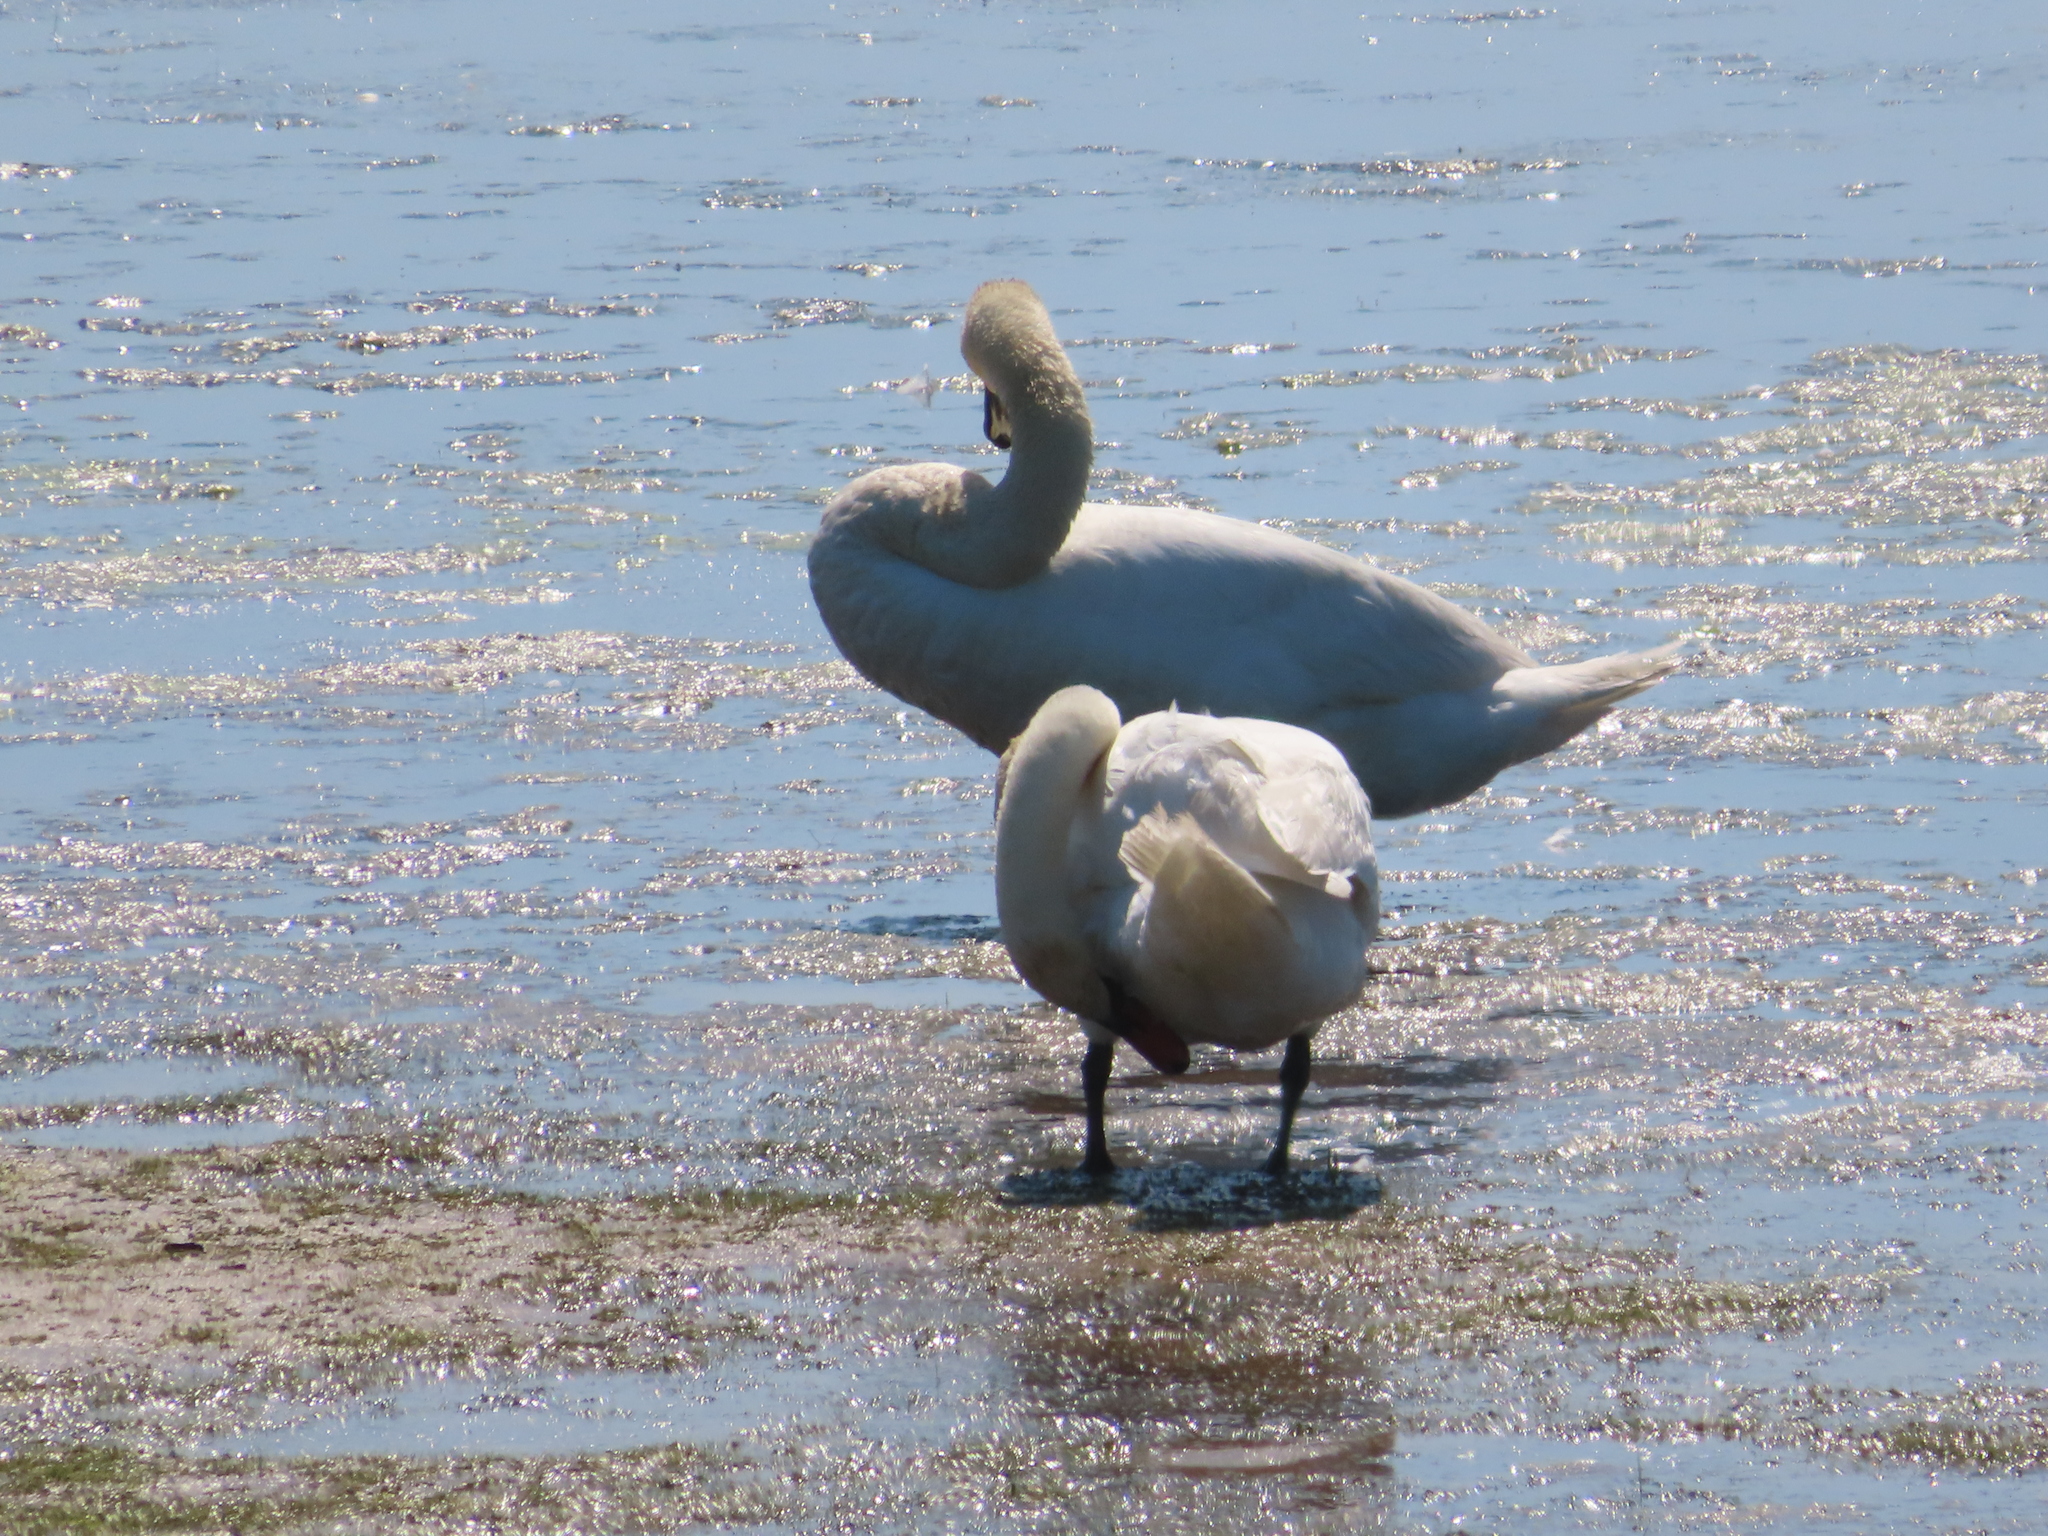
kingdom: Animalia
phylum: Chordata
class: Aves
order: Anseriformes
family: Anatidae
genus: Cygnus
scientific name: Cygnus olor
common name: Mute swan
